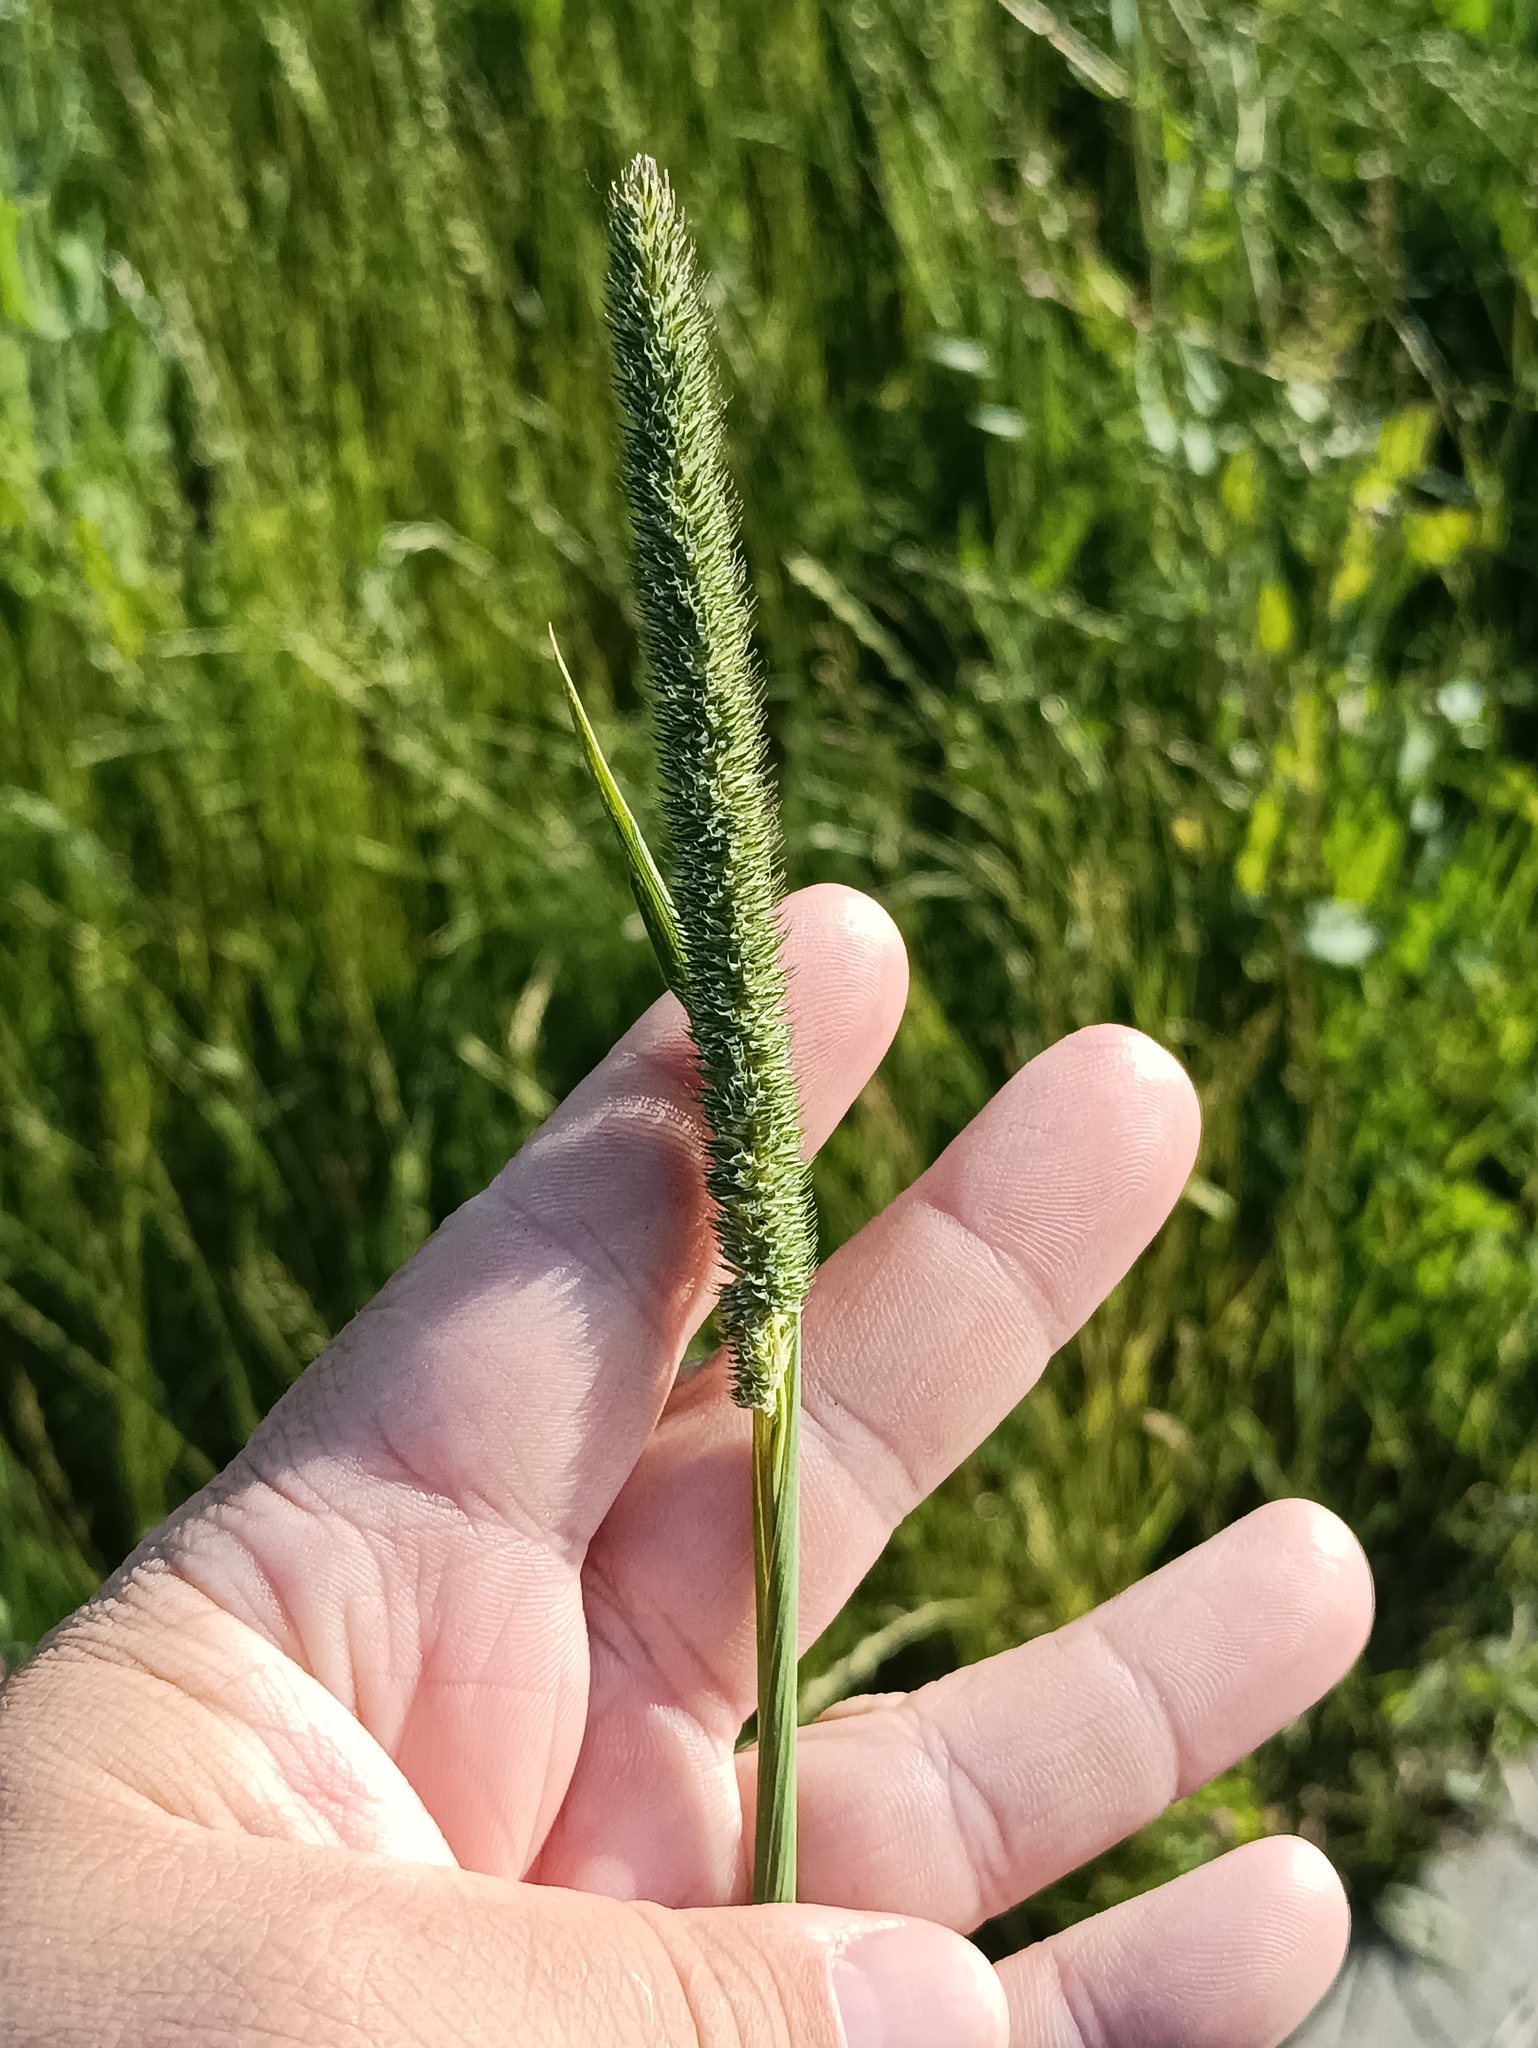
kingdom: Plantae
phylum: Tracheophyta
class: Liliopsida
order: Poales
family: Poaceae
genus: Phleum
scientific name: Phleum pratense
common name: Timothy grass
